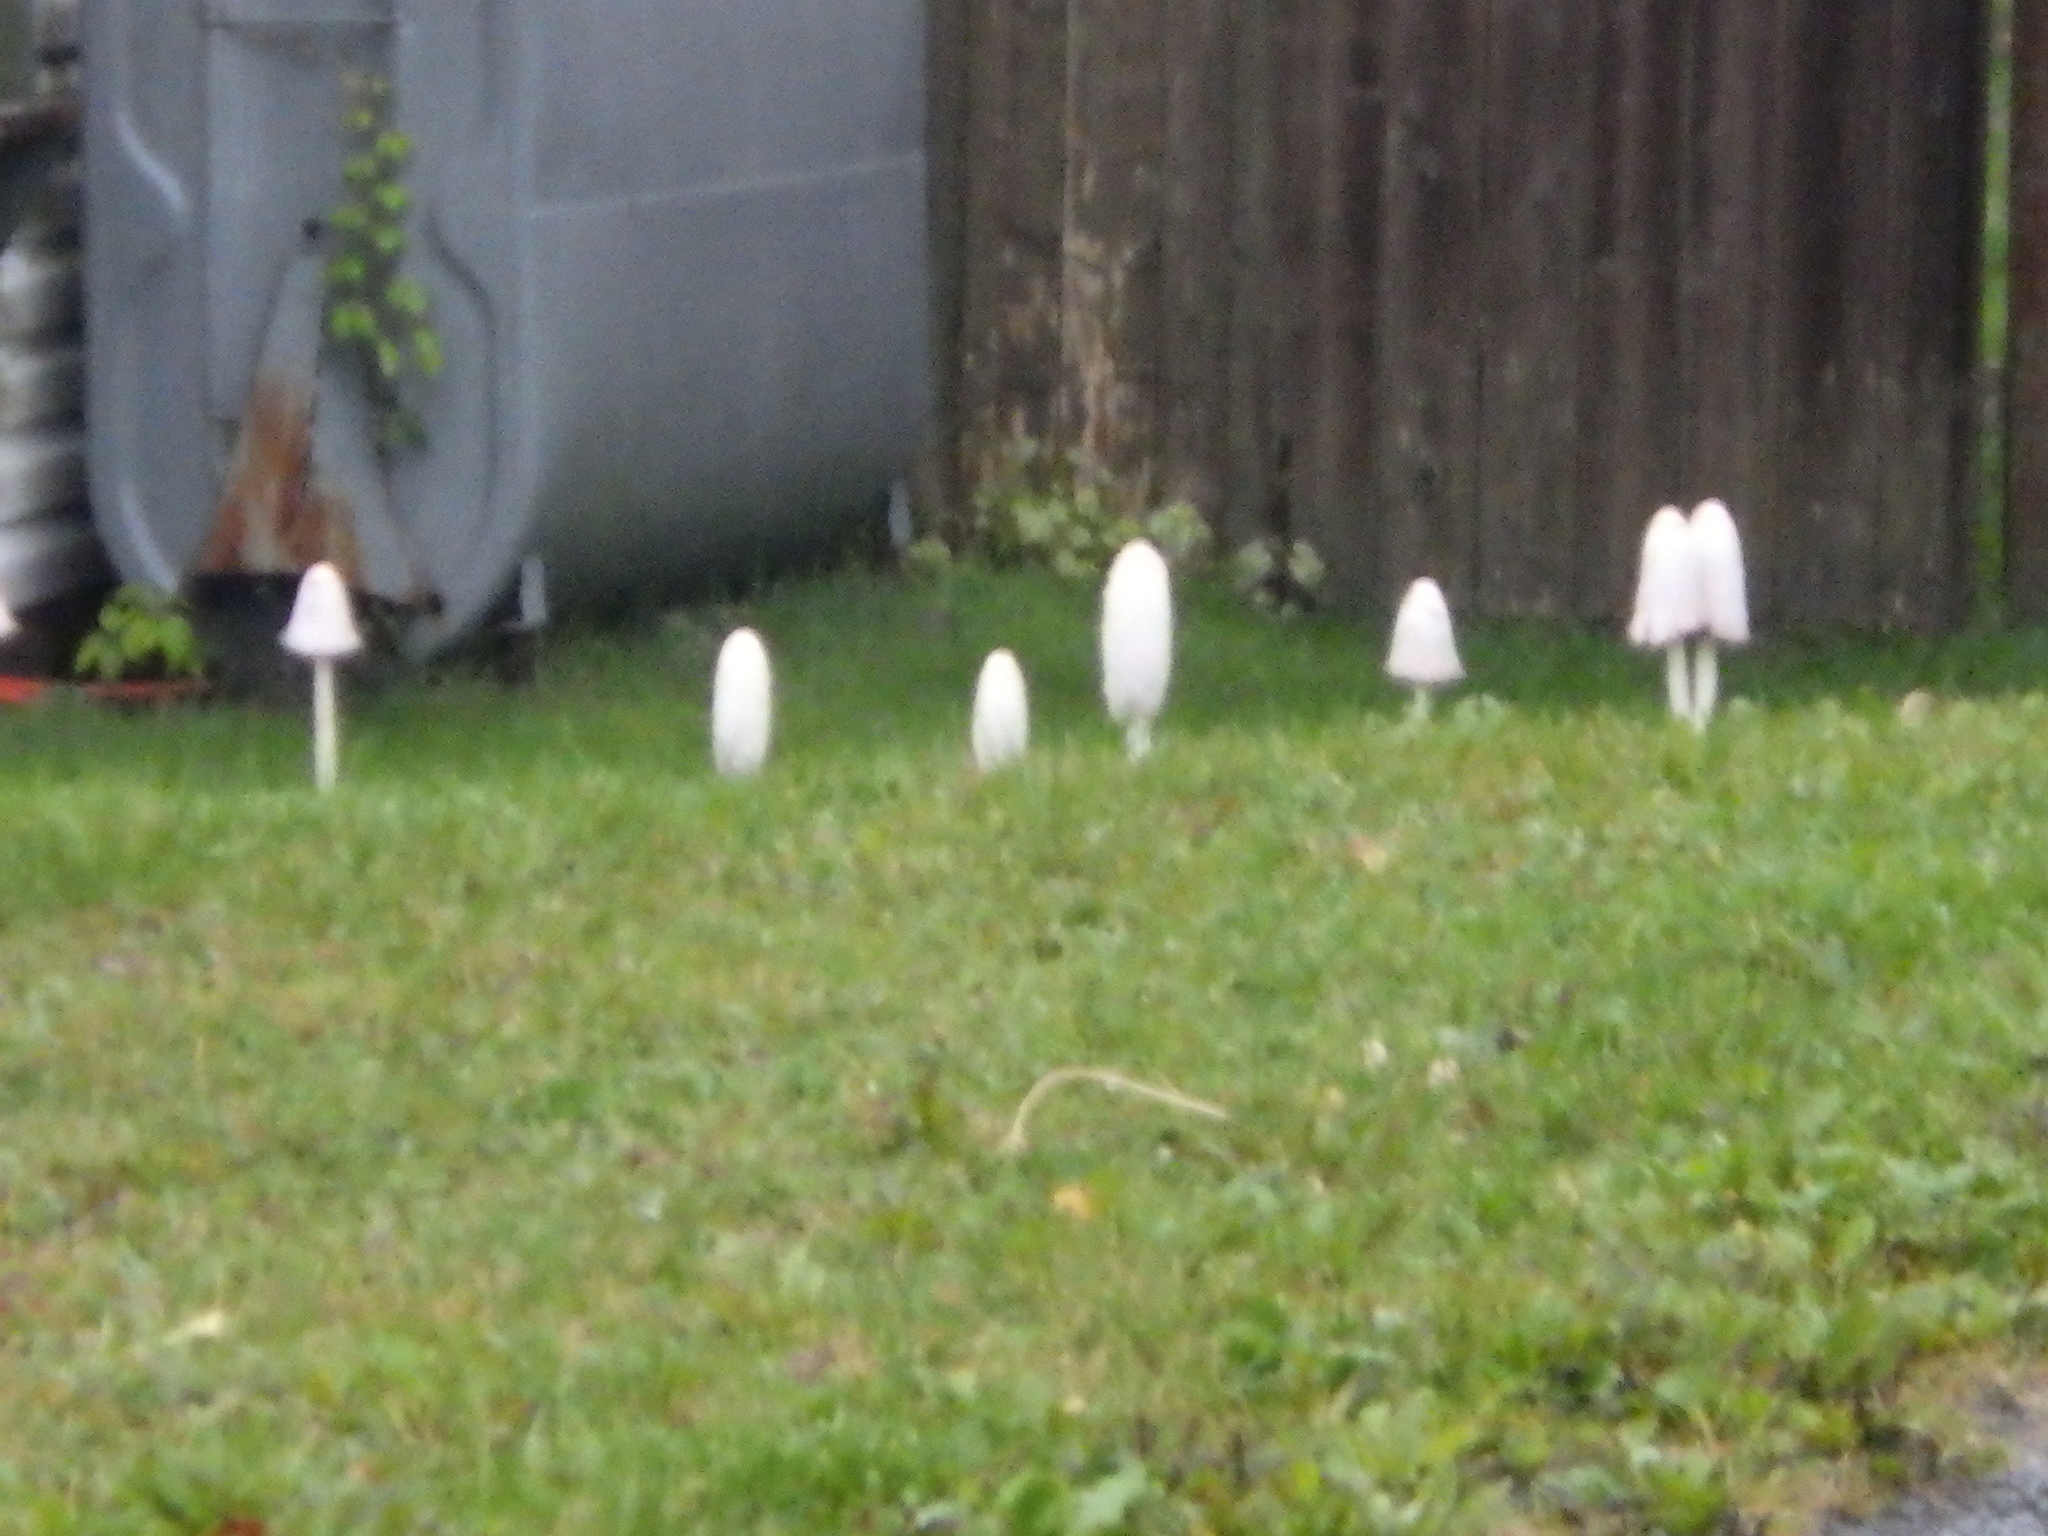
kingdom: Fungi
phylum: Basidiomycota
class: Agaricomycetes
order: Agaricales
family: Agaricaceae
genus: Coprinus
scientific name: Coprinus comatus
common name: Lawyer's wig
